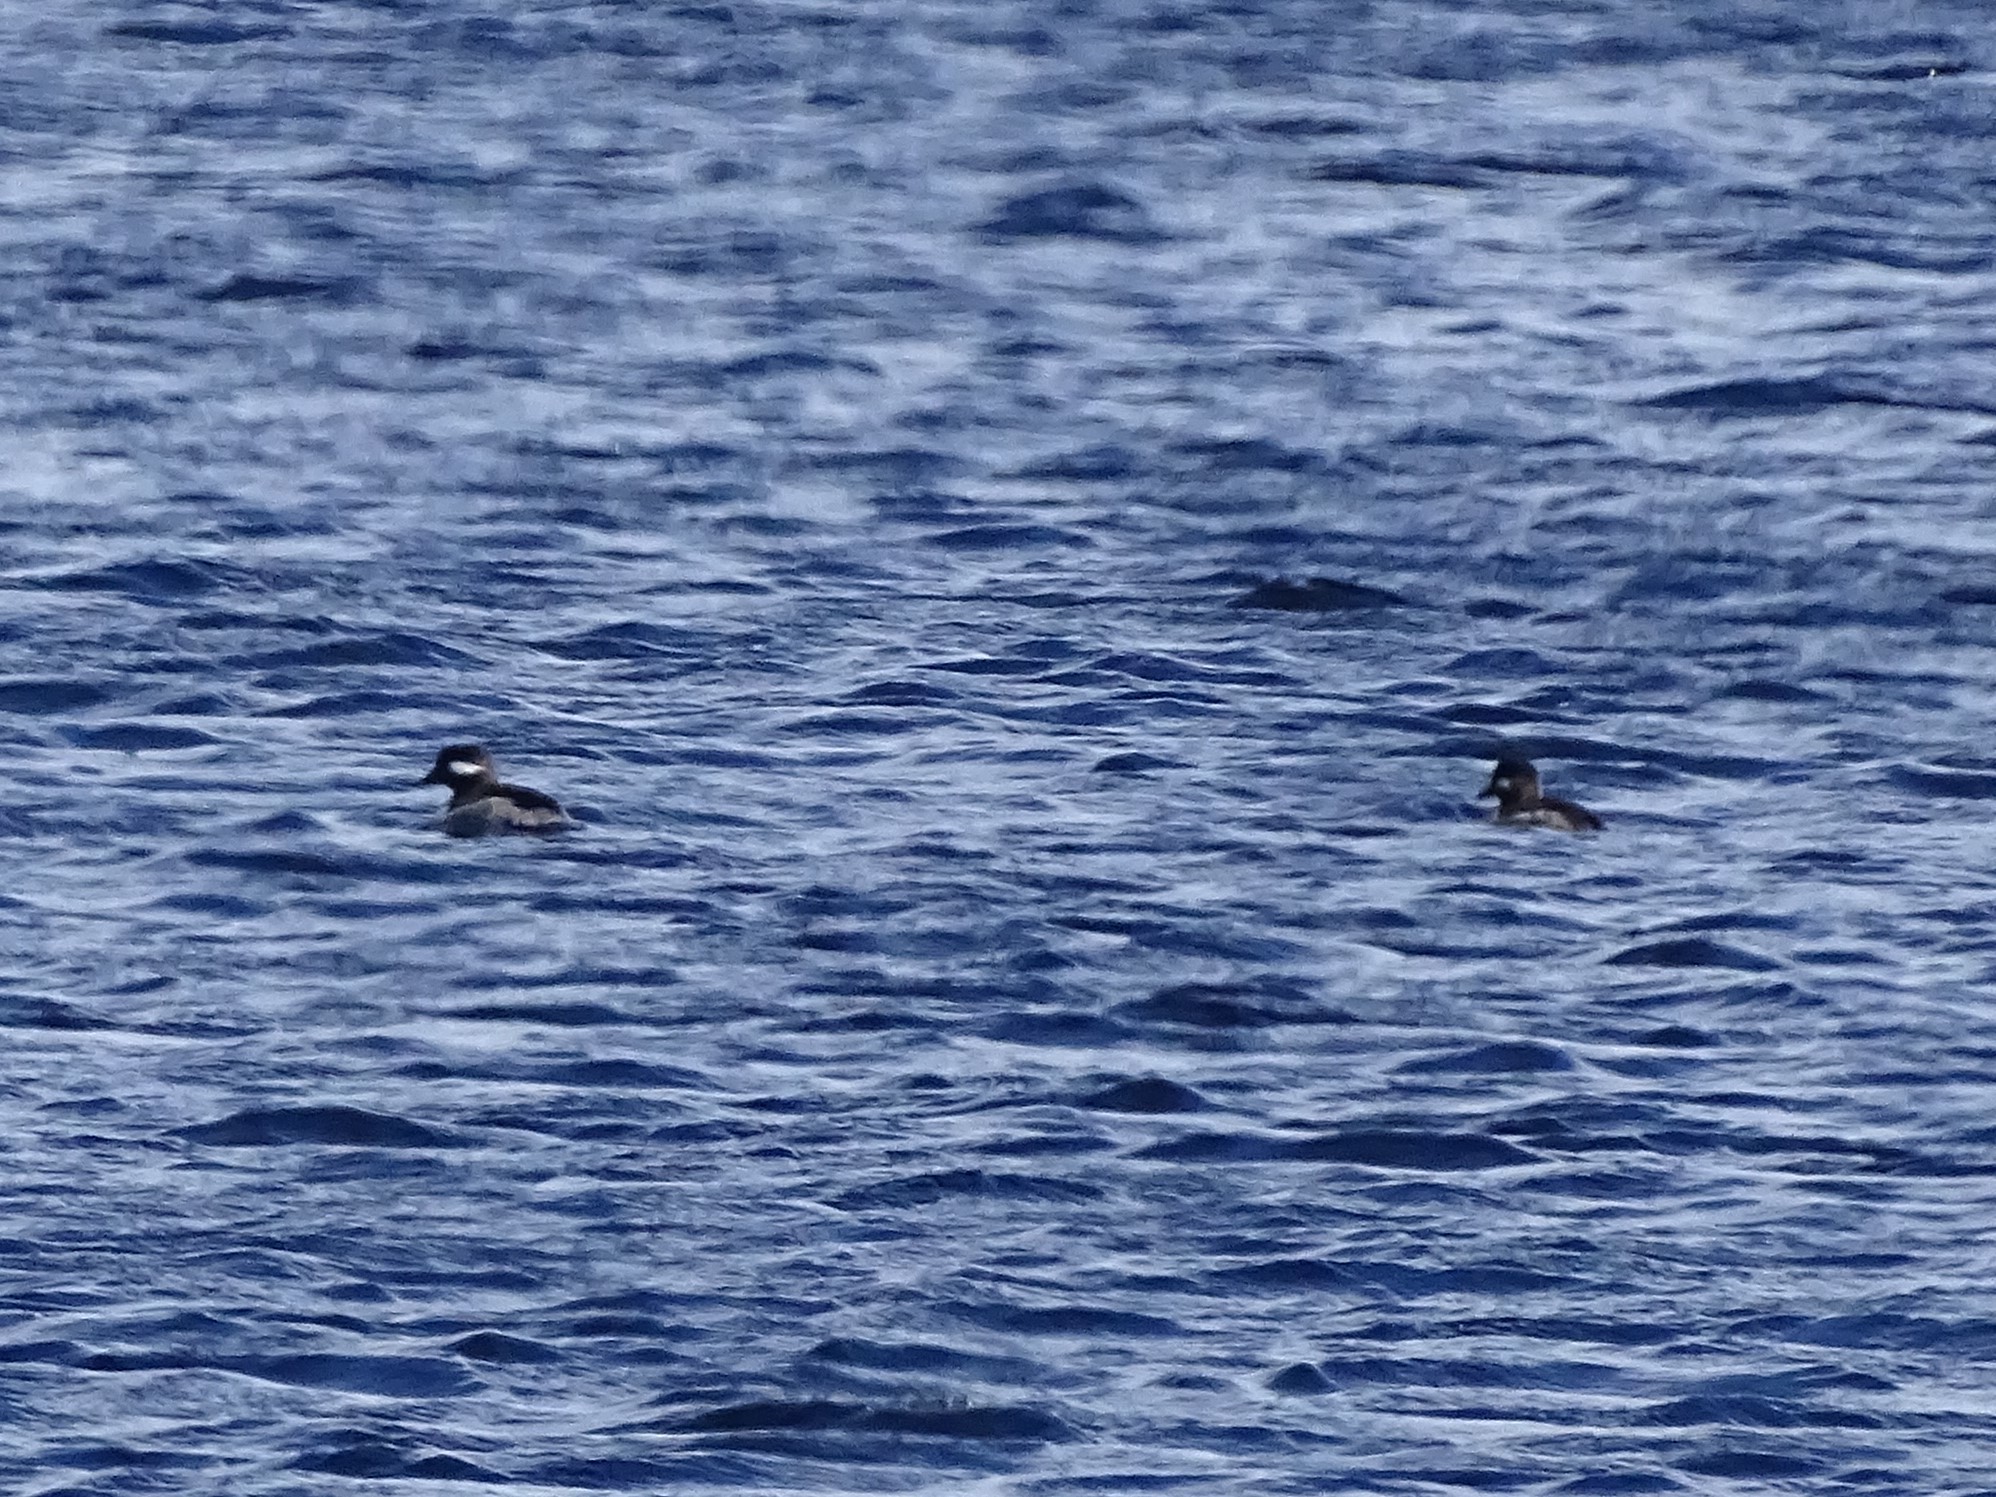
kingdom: Animalia
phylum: Chordata
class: Aves
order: Anseriformes
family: Anatidae
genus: Bucephala
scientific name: Bucephala albeola
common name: Bufflehead
